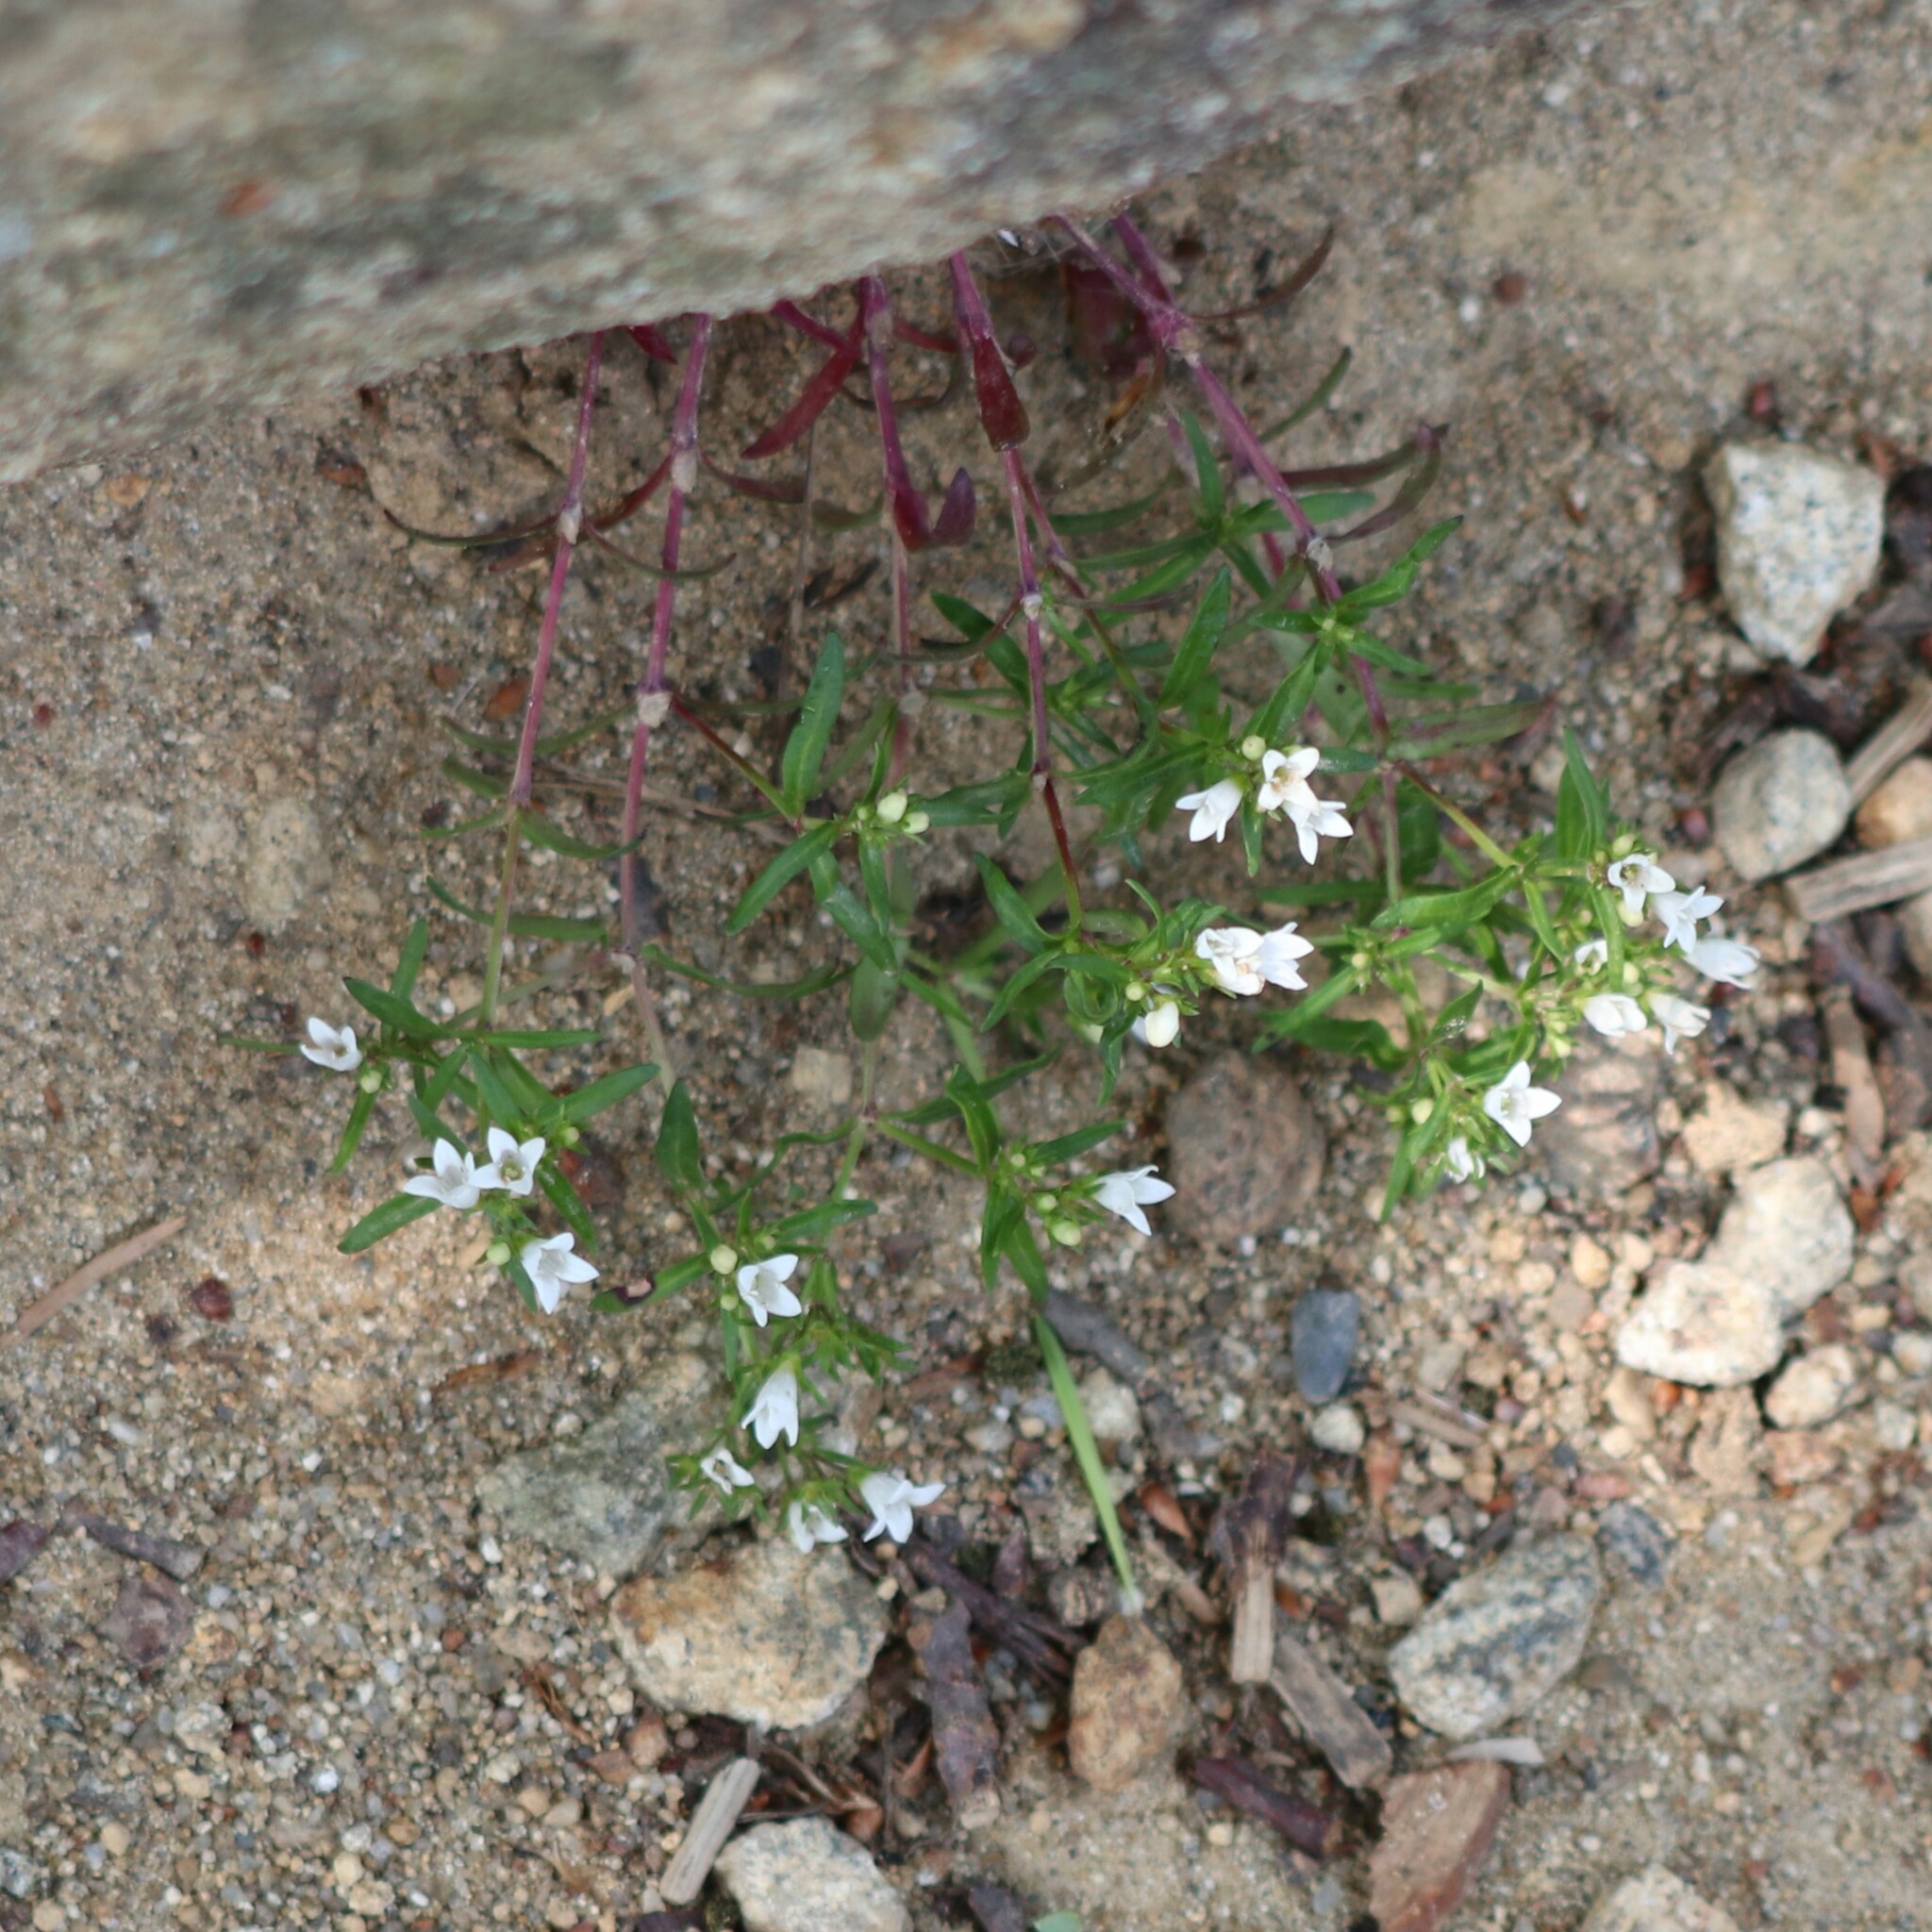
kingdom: Plantae
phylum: Tracheophyta
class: Magnoliopsida
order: Gentianales
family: Rubiaceae
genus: Houstonia
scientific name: Houstonia longifolia
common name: Long-leaved bluets
